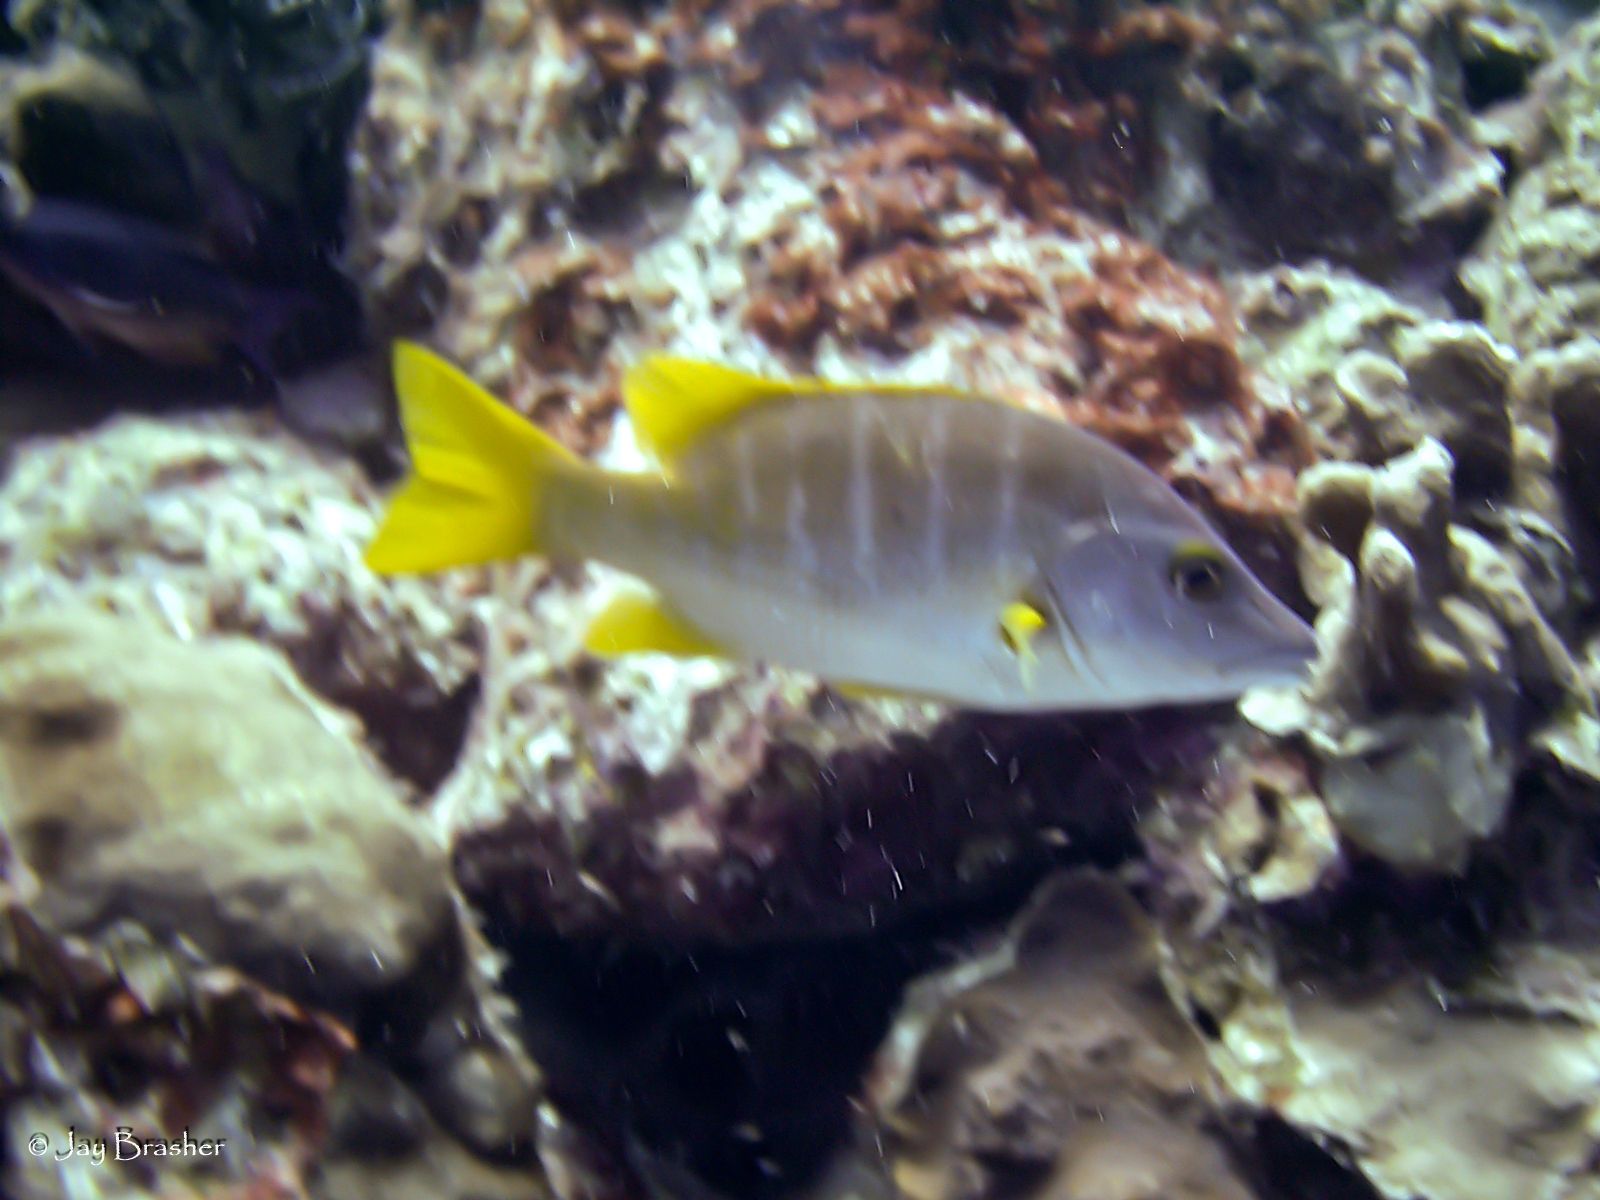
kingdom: Animalia
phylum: Chordata
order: Perciformes
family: Lutjanidae
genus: Lutjanus
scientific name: Lutjanus apodus
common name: Schoolmaster
